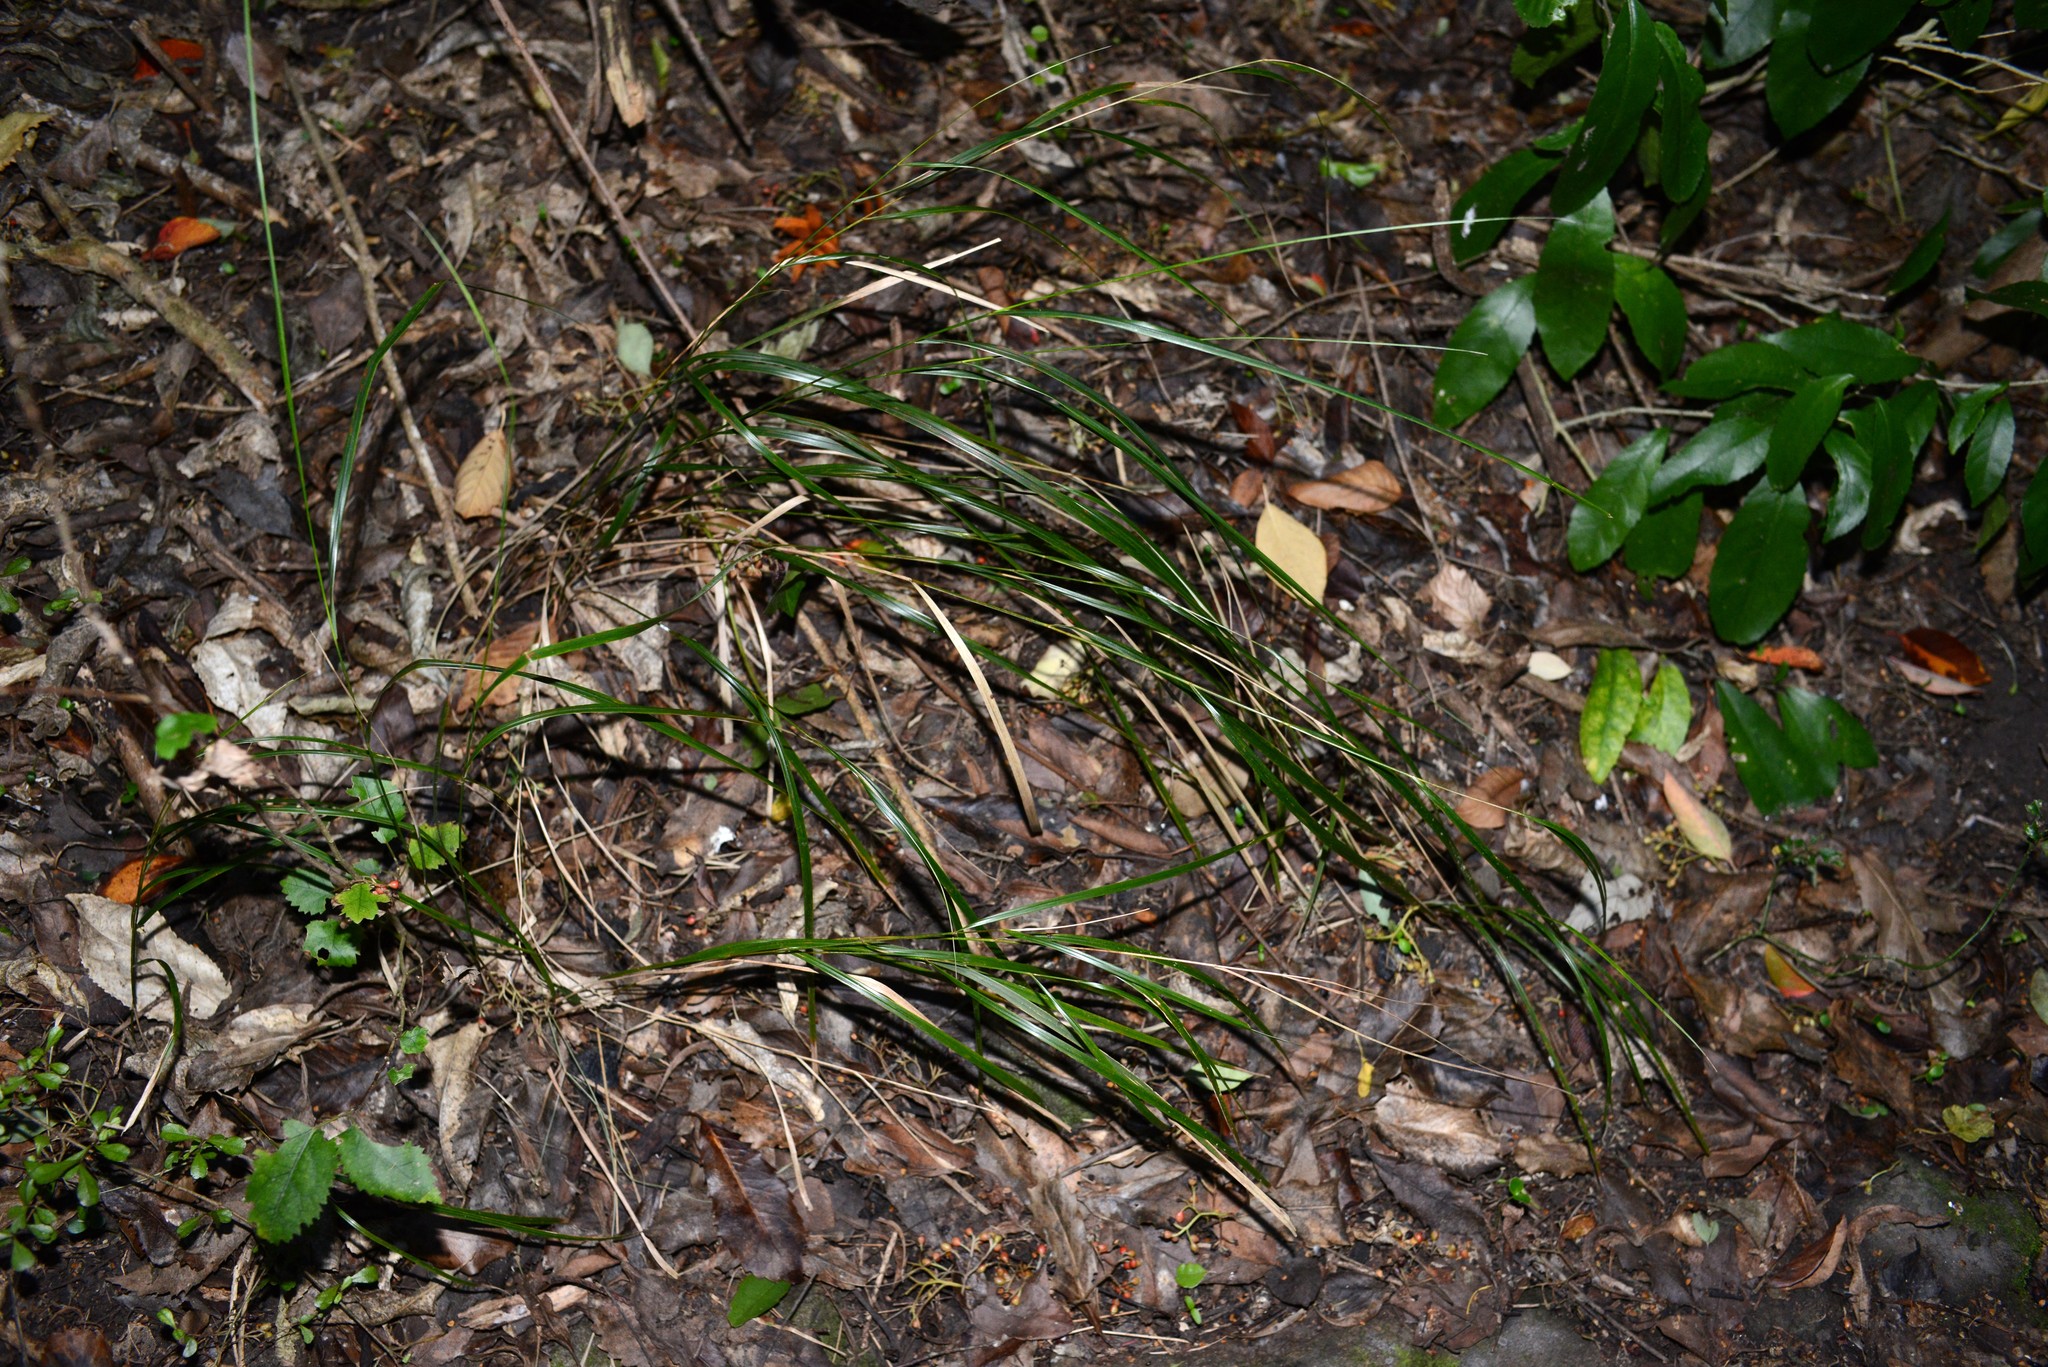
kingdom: Plantae
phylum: Tracheophyta
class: Liliopsida
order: Poales
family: Poaceae
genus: Anemanthele
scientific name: Anemanthele lessoniana
